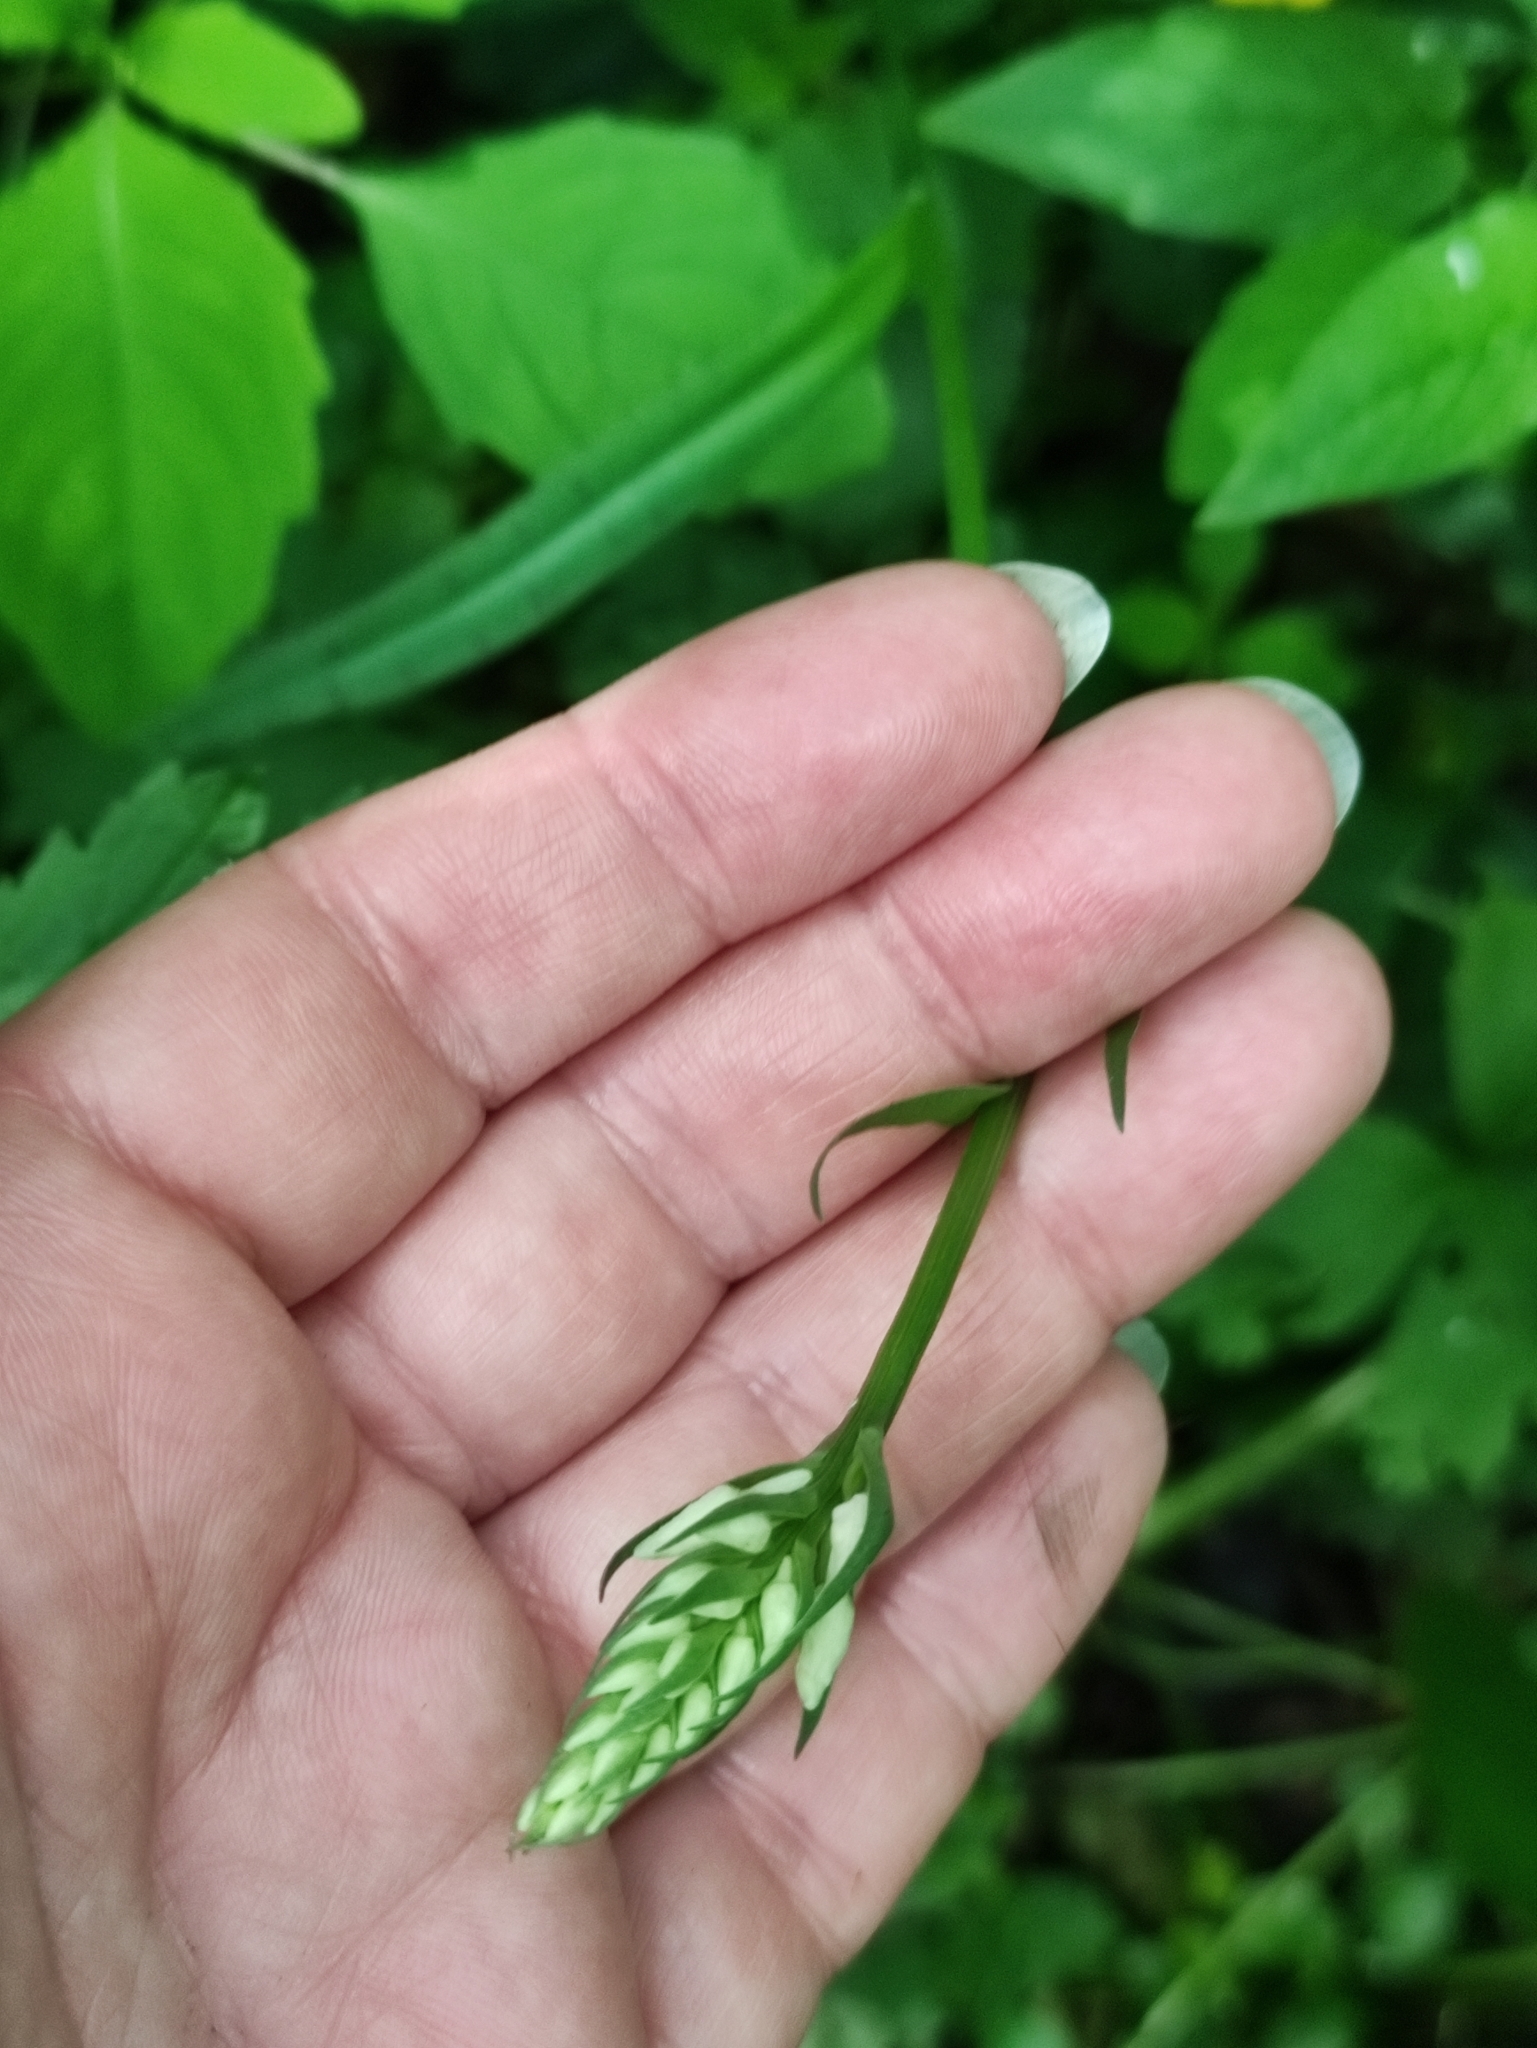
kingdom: Plantae
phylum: Tracheophyta
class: Liliopsida
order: Asparagales
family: Orchidaceae
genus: Dactylorhiza
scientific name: Dactylorhiza maculata
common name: Heath spotted-orchid
